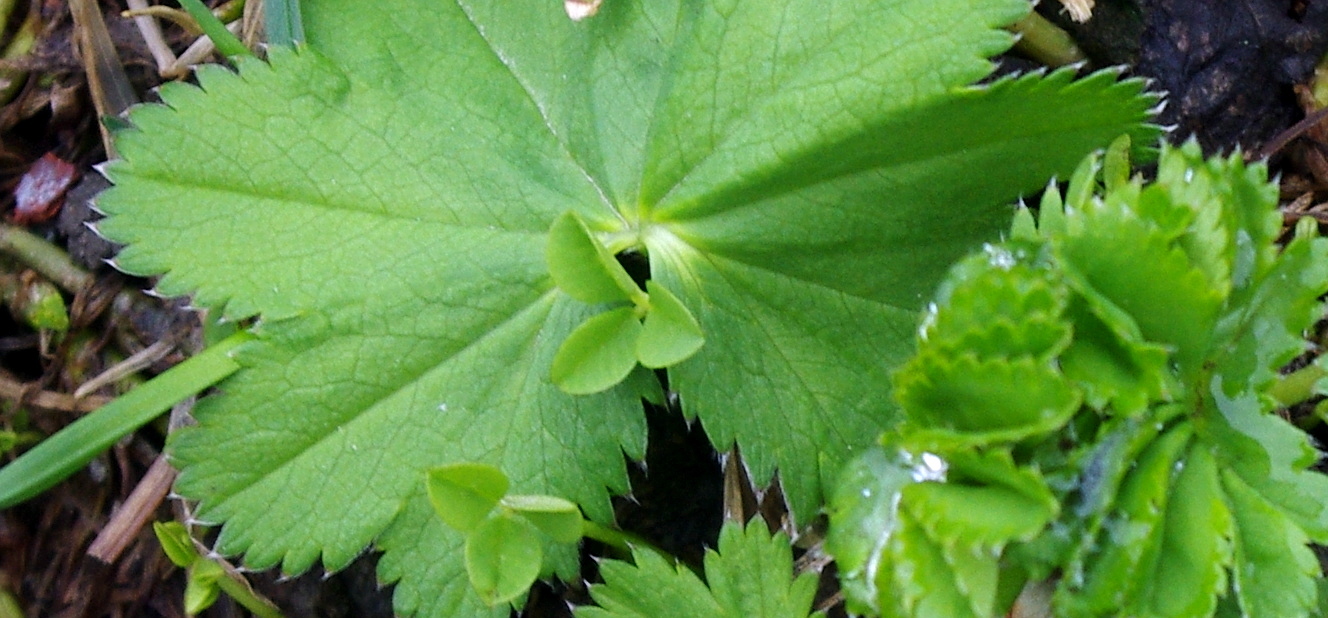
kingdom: Plantae
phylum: Tracheophyta
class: Magnoliopsida
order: Rosales
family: Rosaceae
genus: Alchemilla
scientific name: Alchemilla baltica
